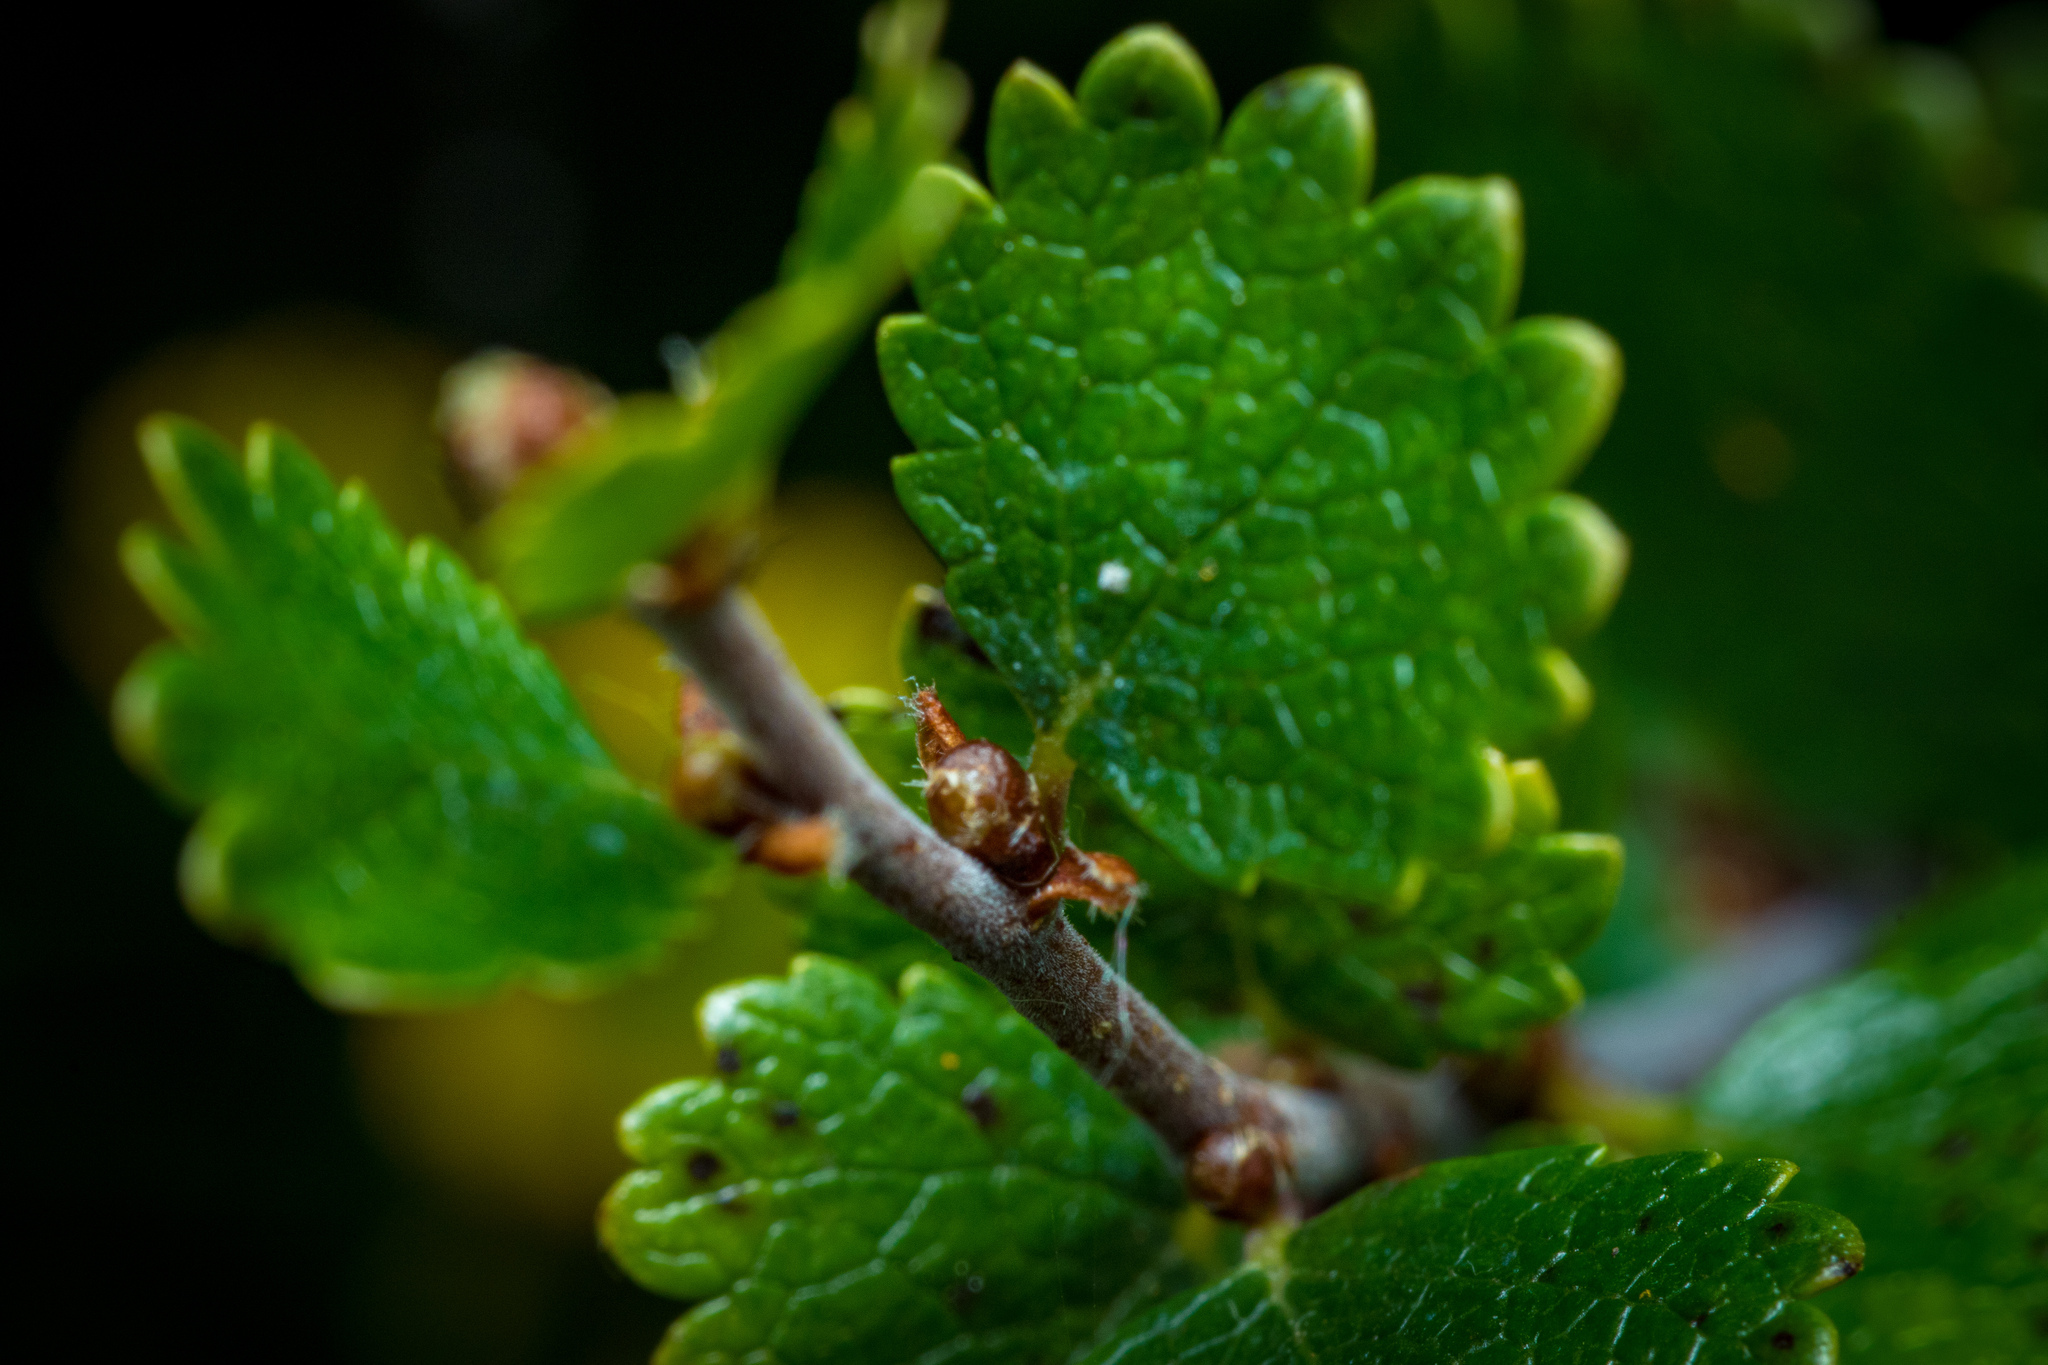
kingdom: Plantae
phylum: Tracheophyta
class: Magnoliopsida
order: Fagales
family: Betulaceae
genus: Betula
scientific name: Betula nana
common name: Arctic dwarf birch
